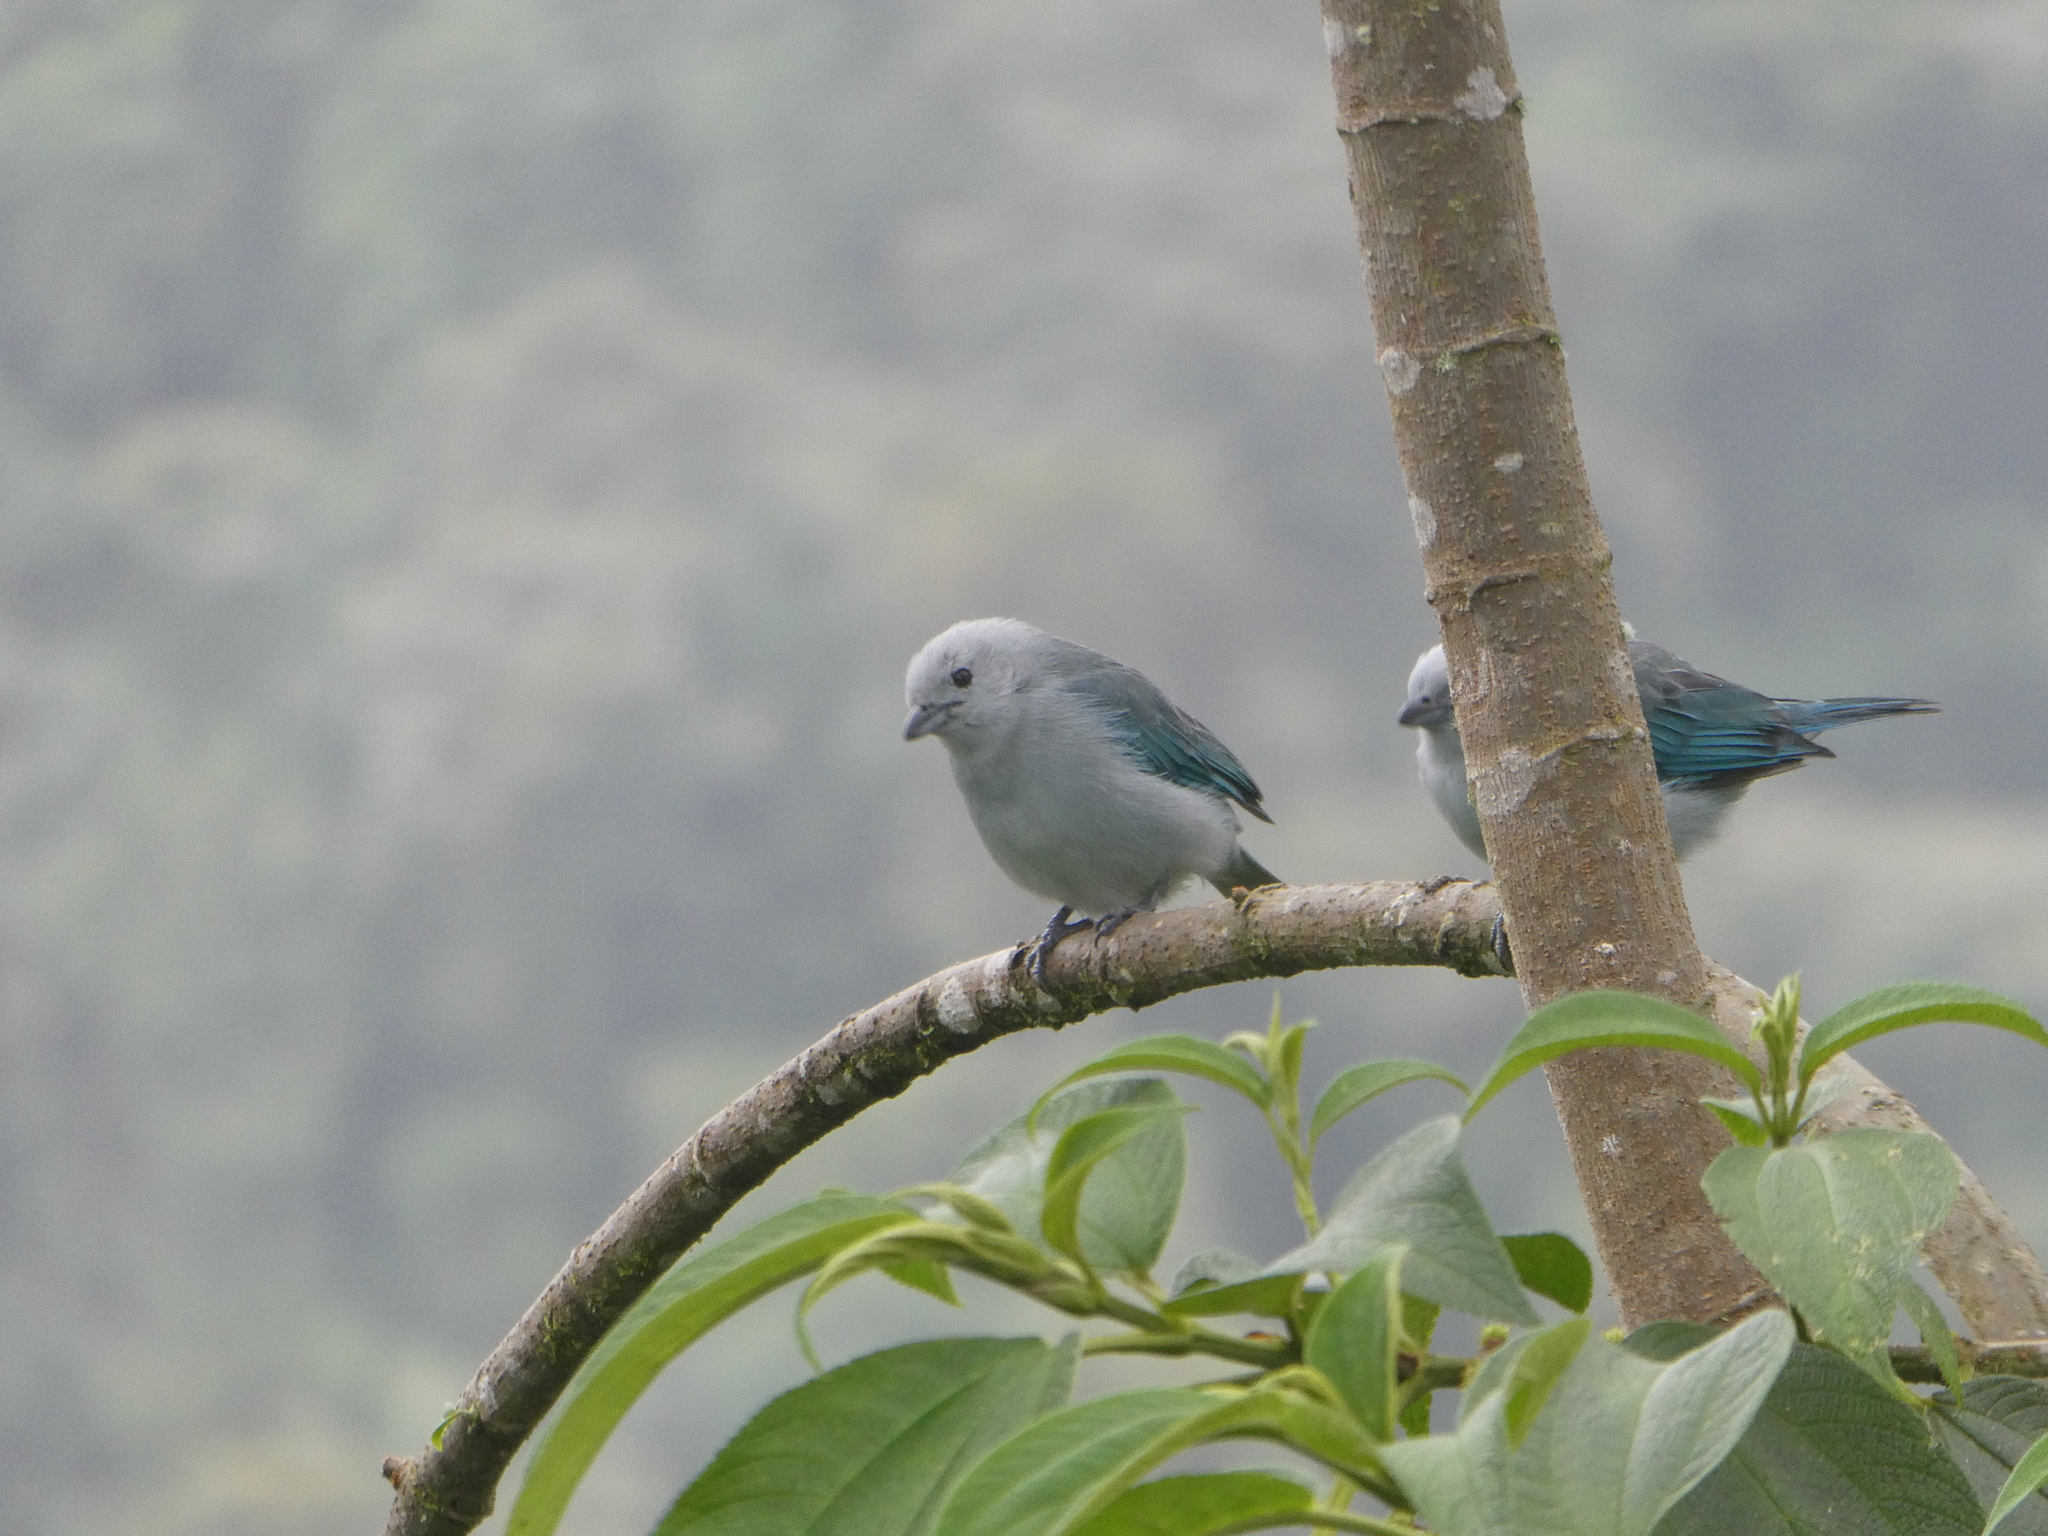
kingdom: Animalia
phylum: Chordata
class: Aves
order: Passeriformes
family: Thraupidae
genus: Thraupis
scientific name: Thraupis episcopus
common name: Blue-grey tanager
